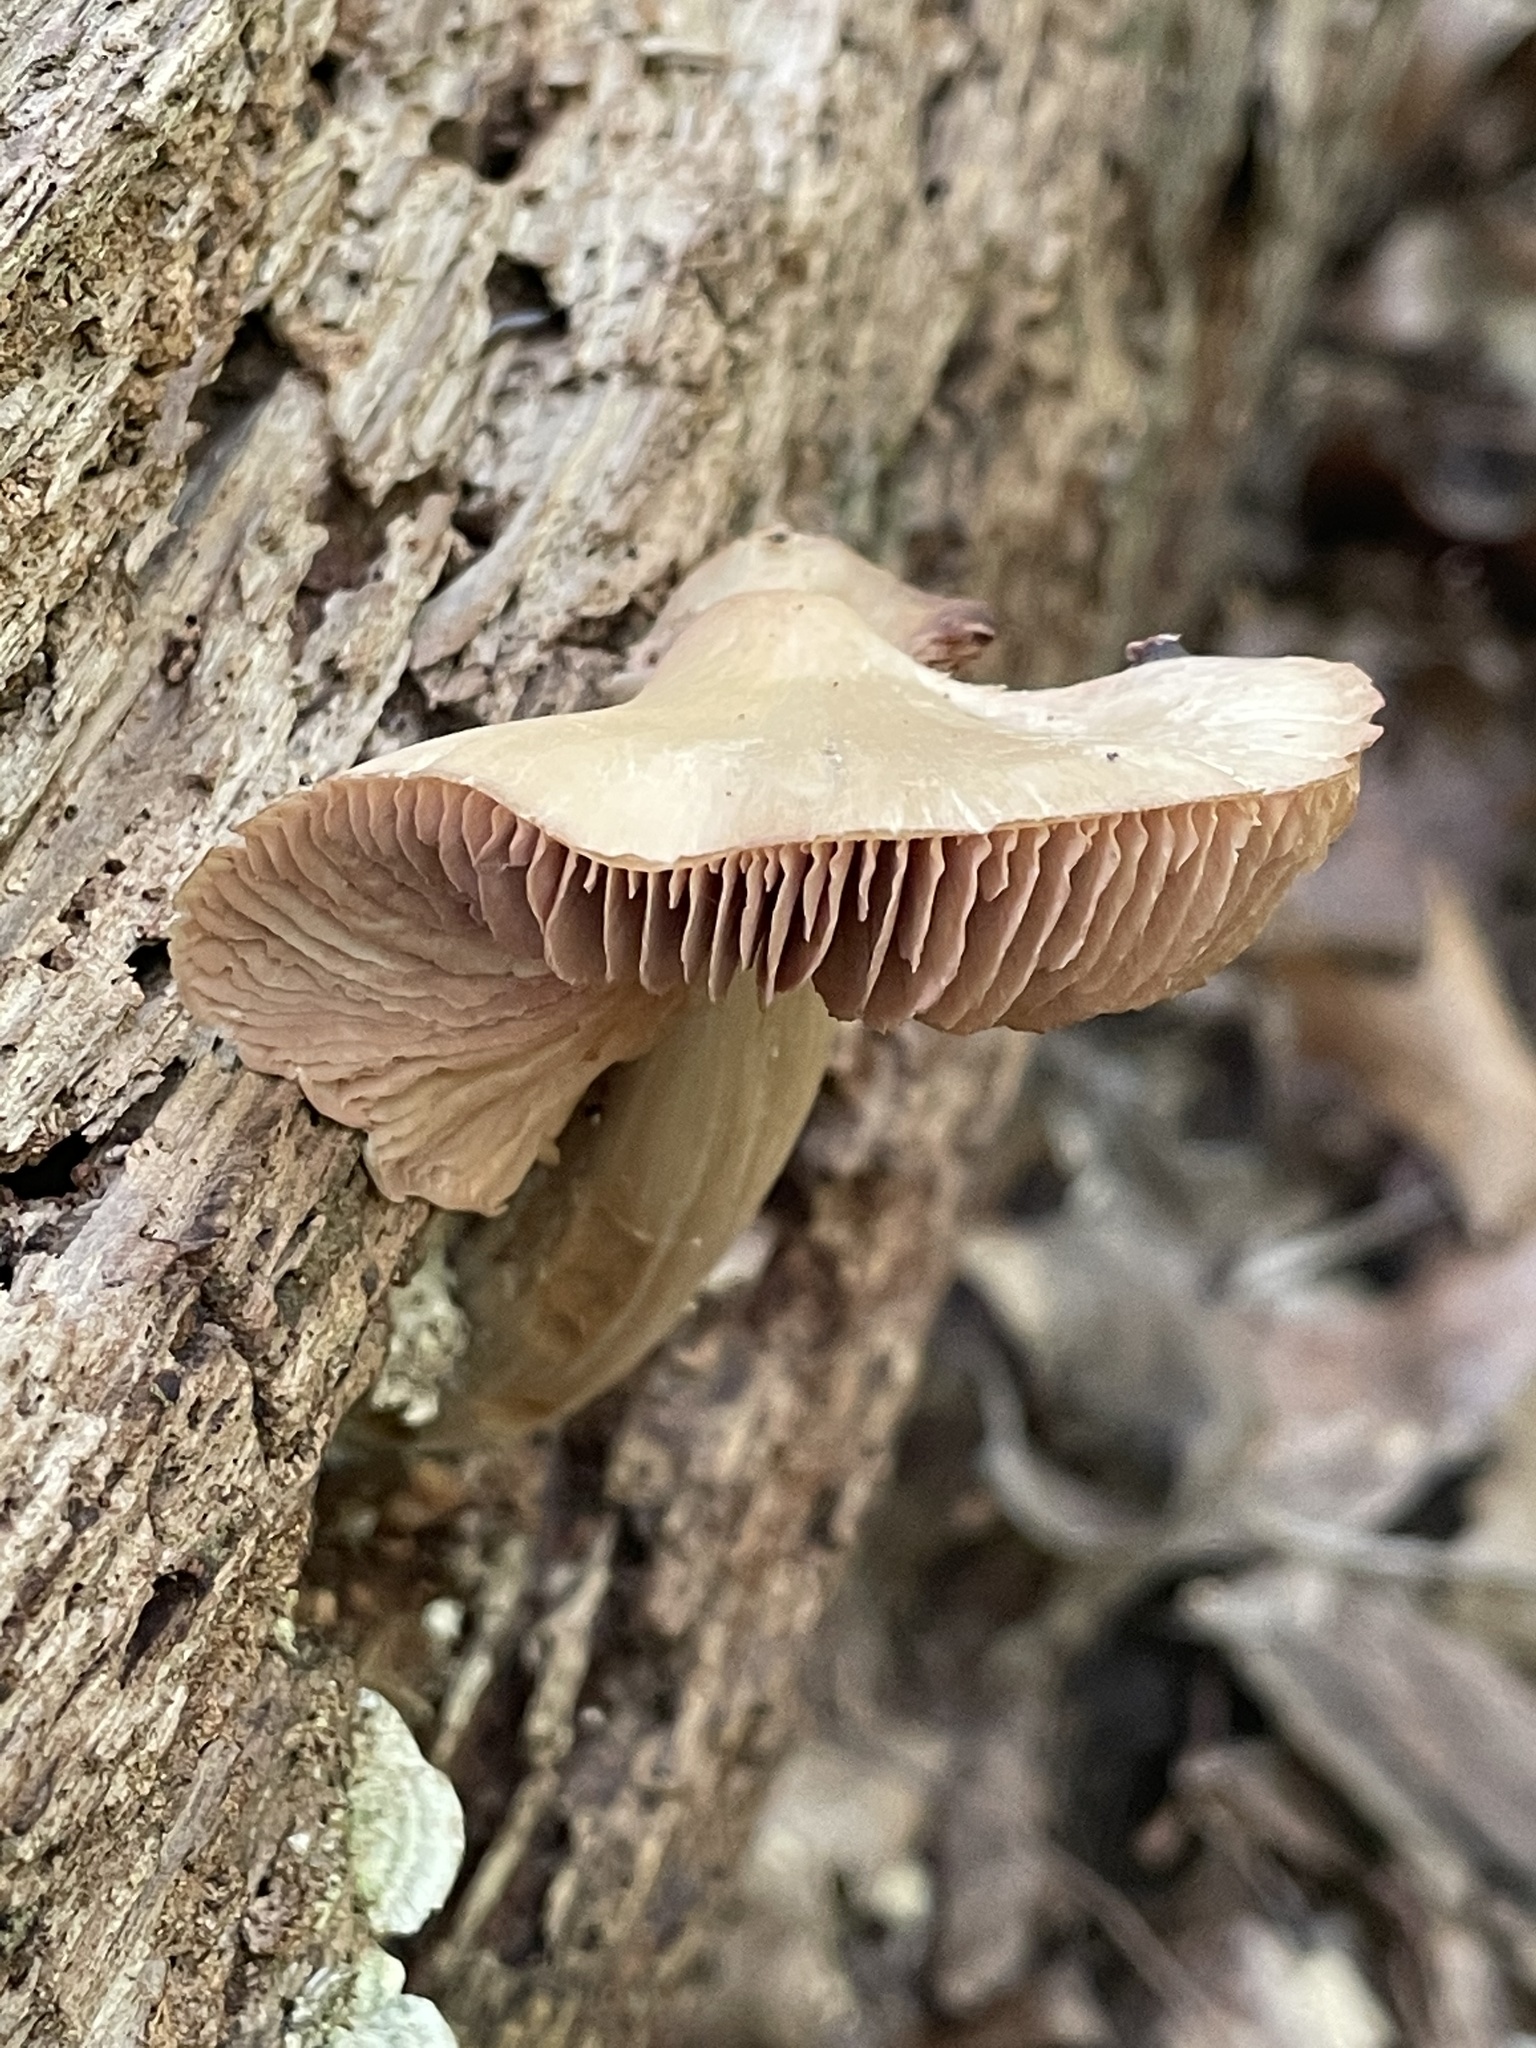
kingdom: Fungi
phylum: Basidiomycota
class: Agaricomycetes
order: Agaricales
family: Entolomataceae
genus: Entoloma
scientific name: Entoloma strictius
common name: Straight-stalked entoloma
